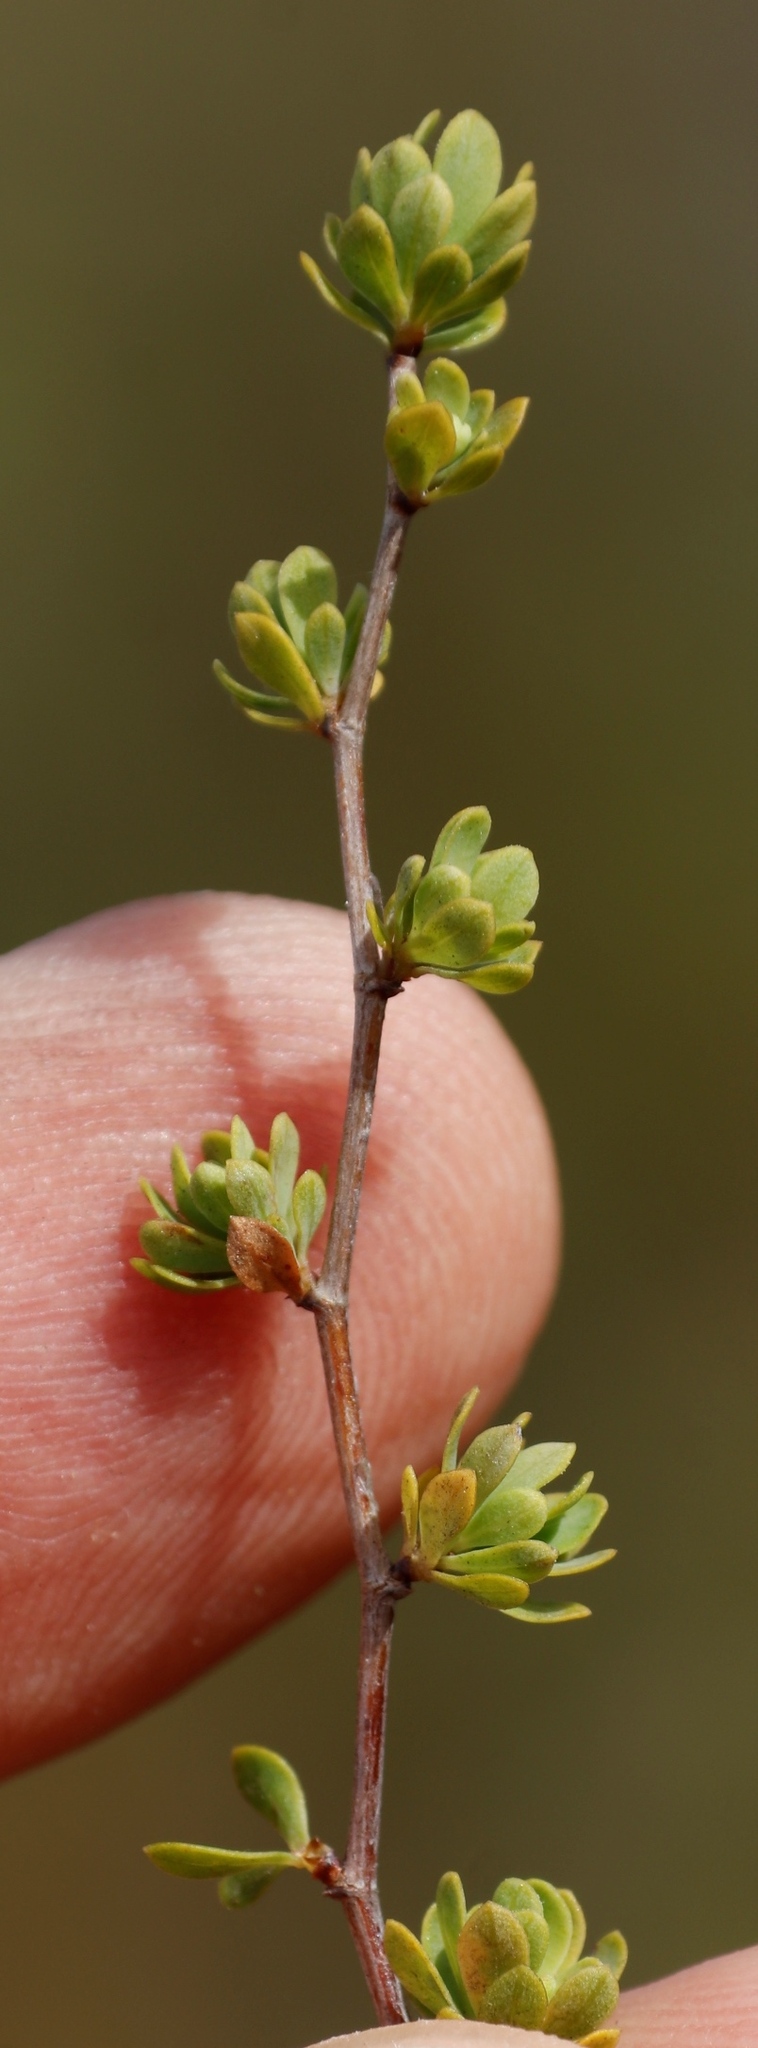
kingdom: Plantae
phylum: Tracheophyta
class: Magnoliopsida
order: Rosales
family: Rosaceae
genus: Cliffortia
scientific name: Cliffortia obovata
